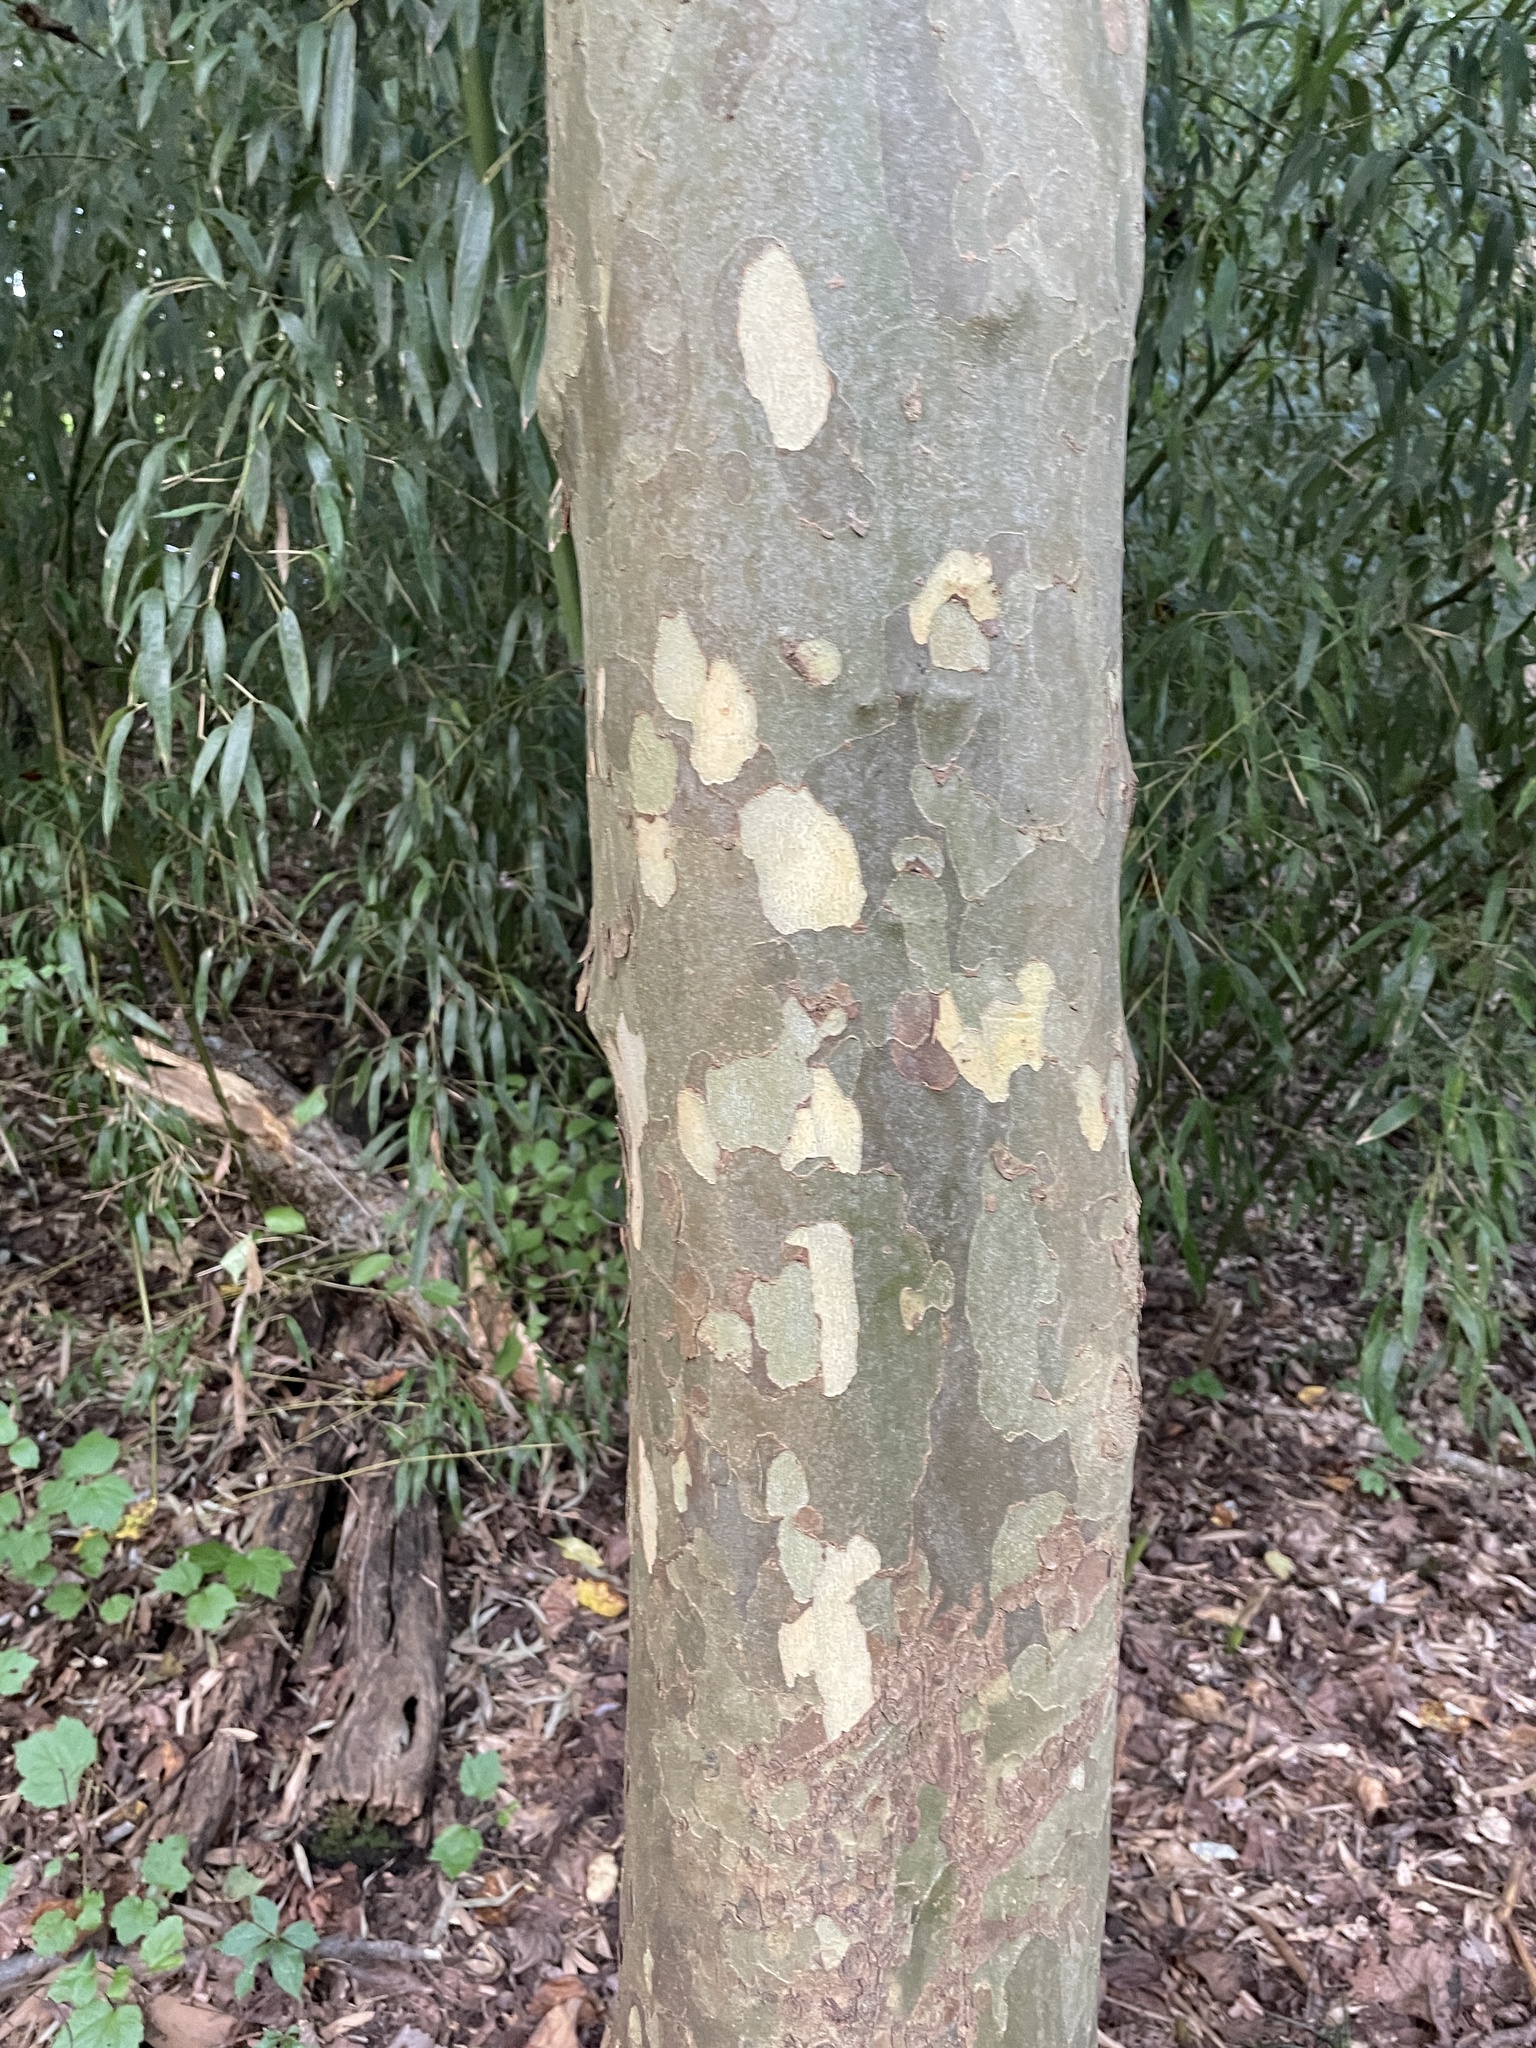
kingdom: Plantae
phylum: Tracheophyta
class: Magnoliopsida
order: Proteales
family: Platanaceae
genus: Platanus
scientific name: Platanus occidentalis
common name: American sycamore
